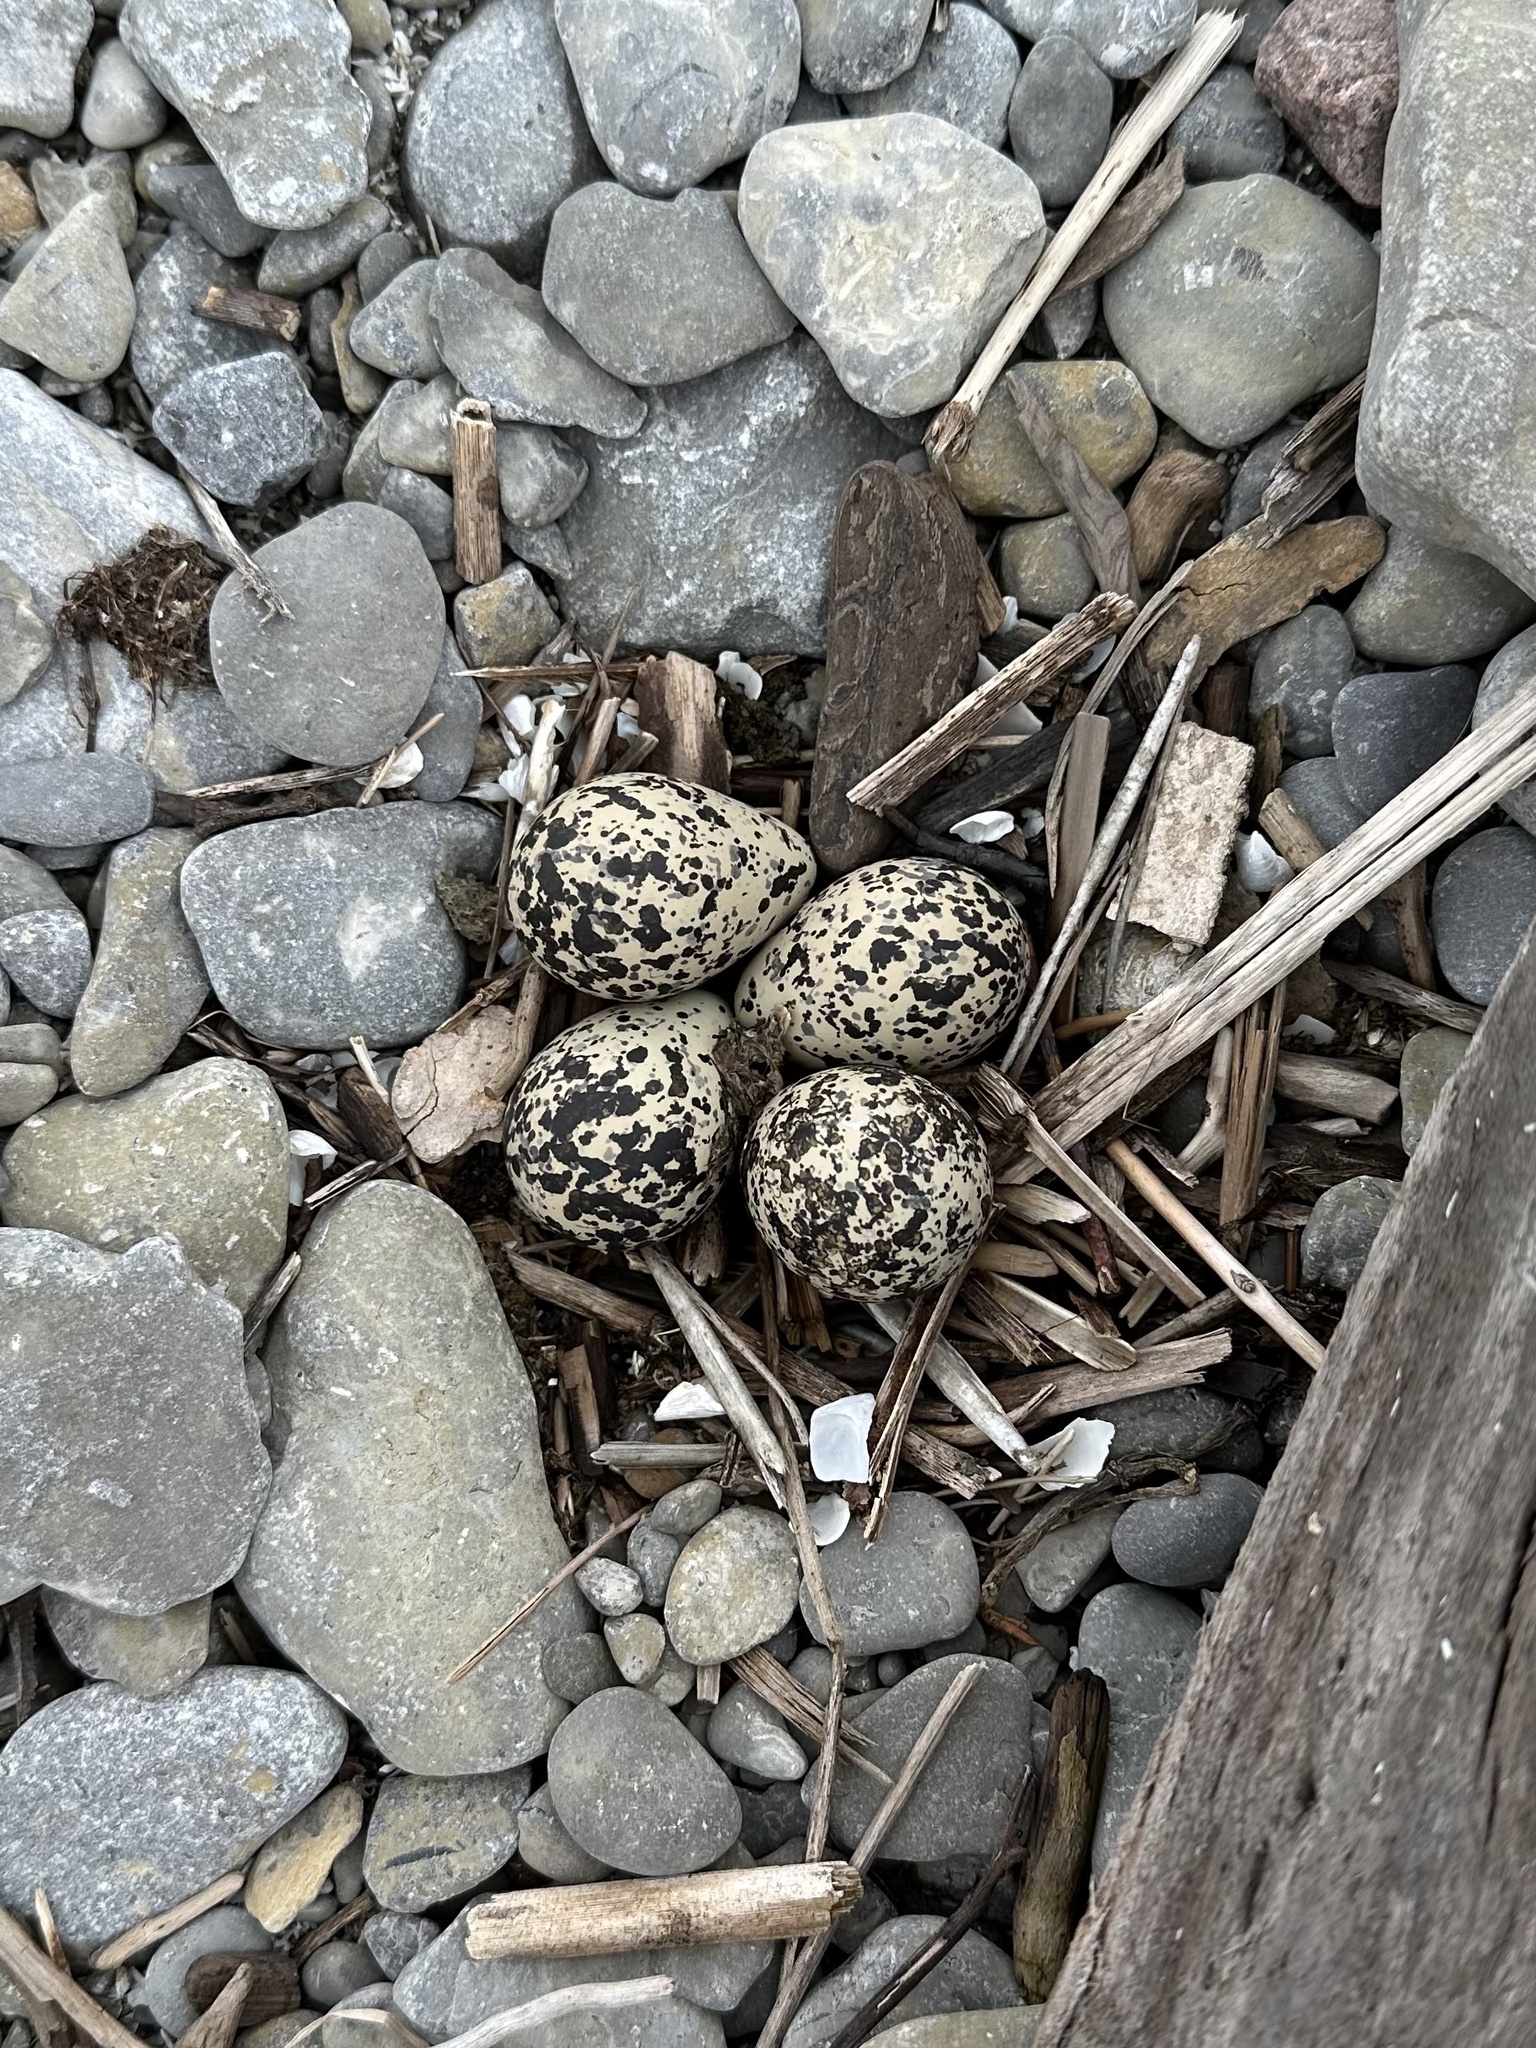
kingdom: Animalia
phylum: Chordata
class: Aves
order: Charadriiformes
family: Charadriidae
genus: Charadrius
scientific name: Charadrius vociferus
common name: Killdeer
